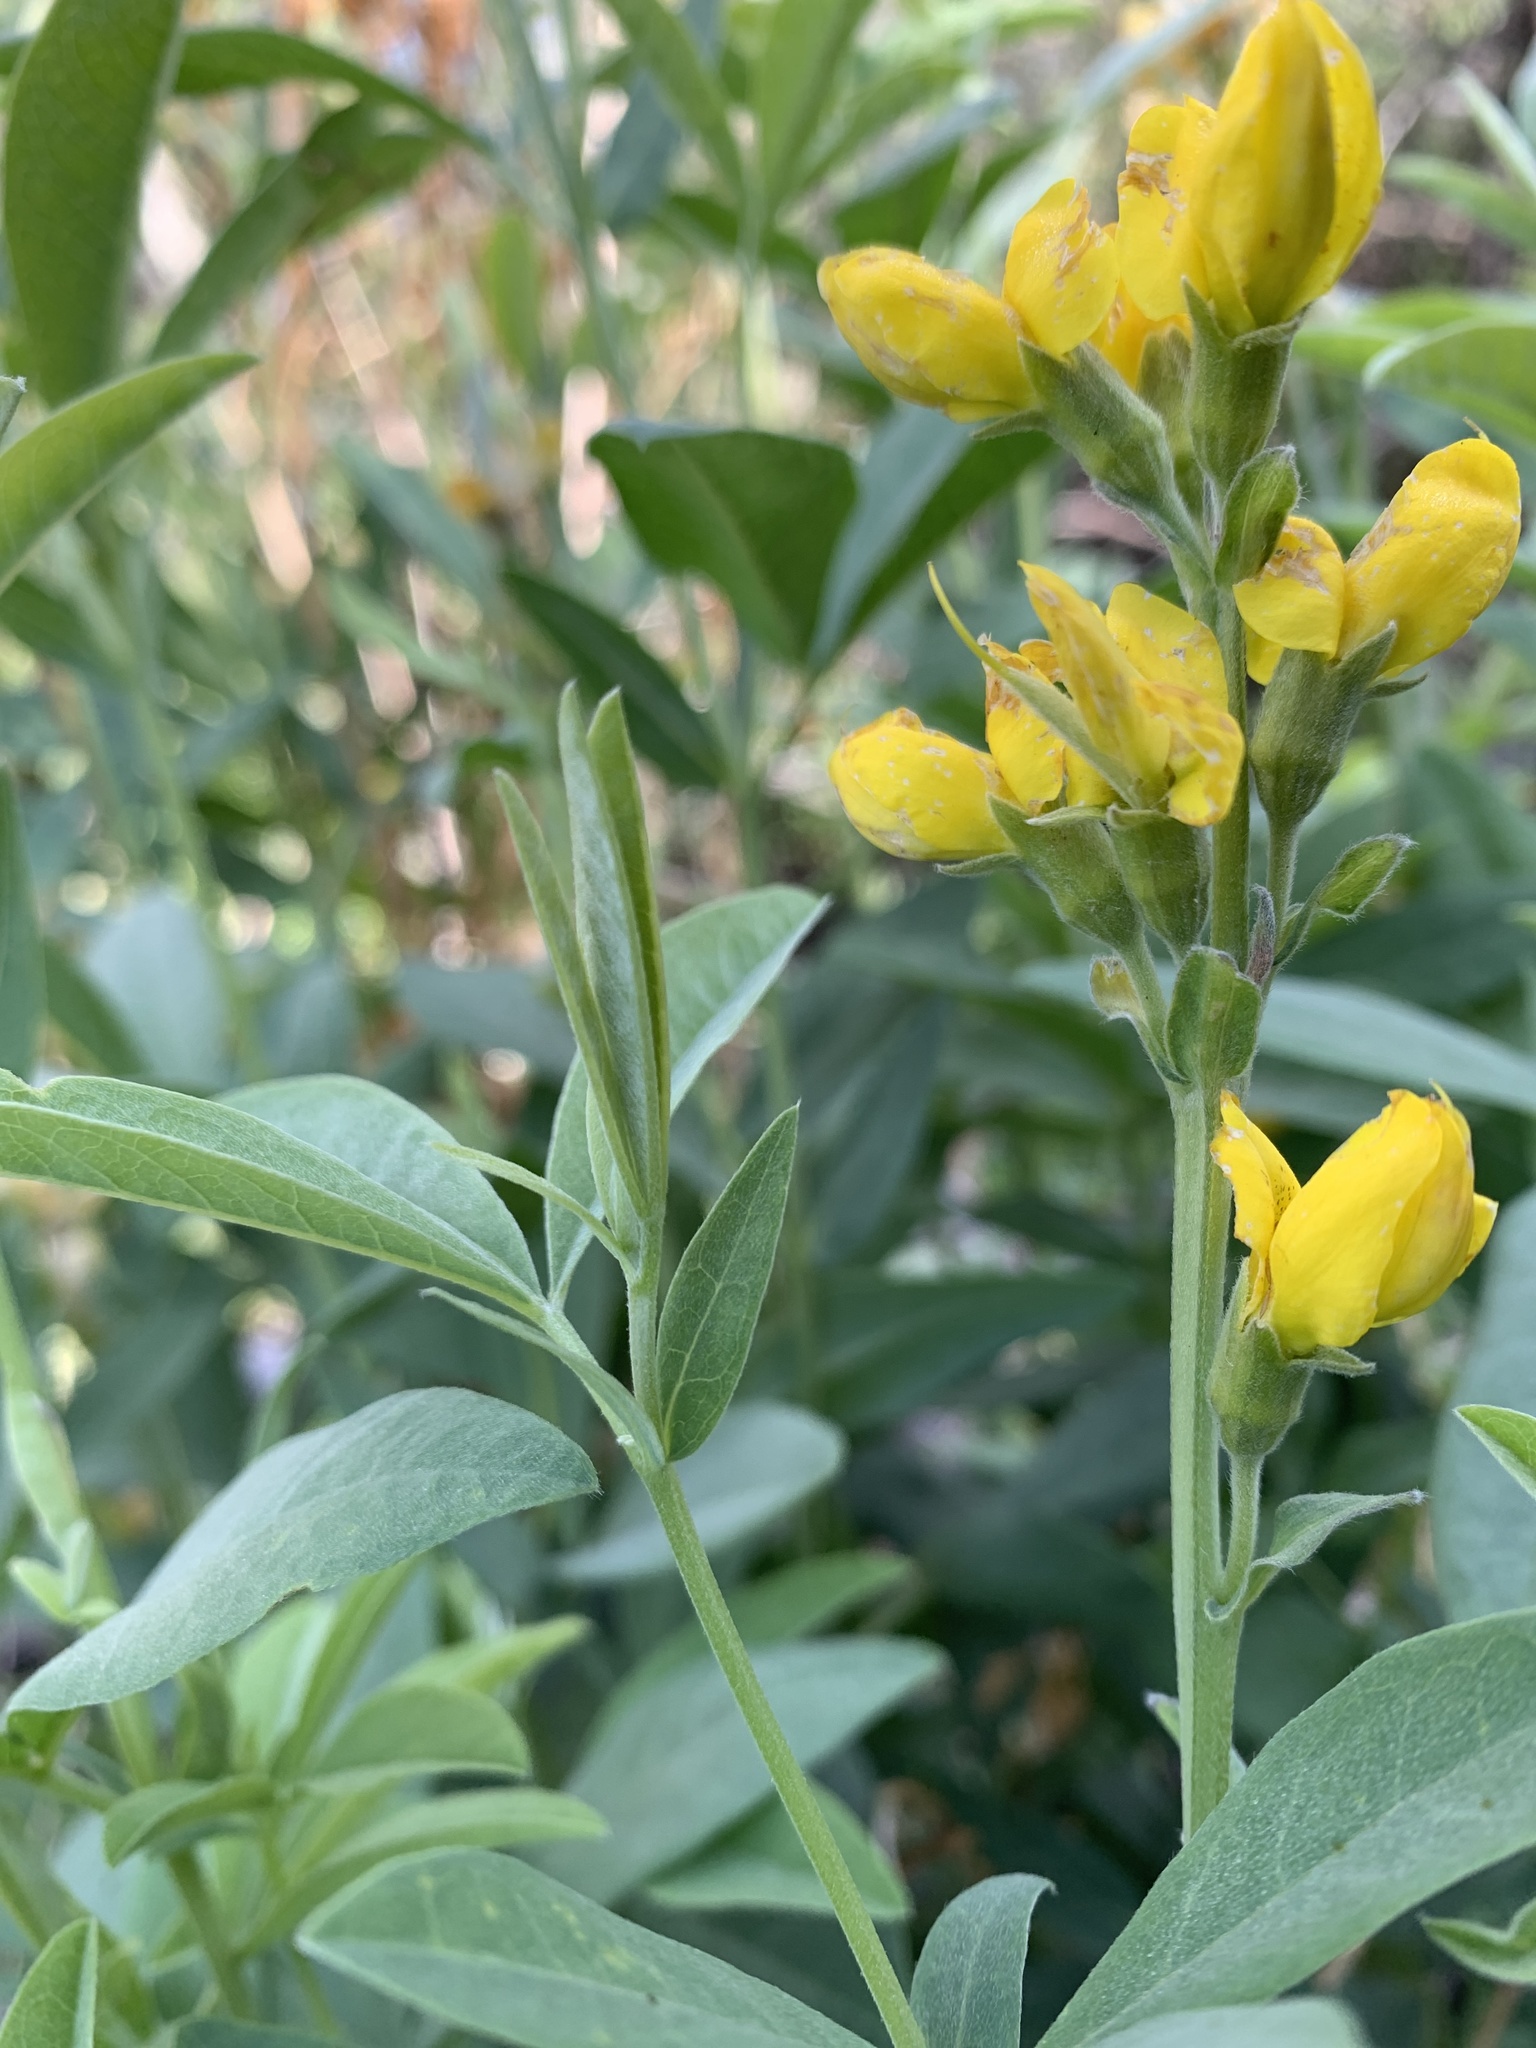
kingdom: Plantae
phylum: Tracheophyta
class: Magnoliopsida
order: Fabales
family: Fabaceae
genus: Thermopsis
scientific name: Thermopsis gracilis
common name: Slender golden-banner
